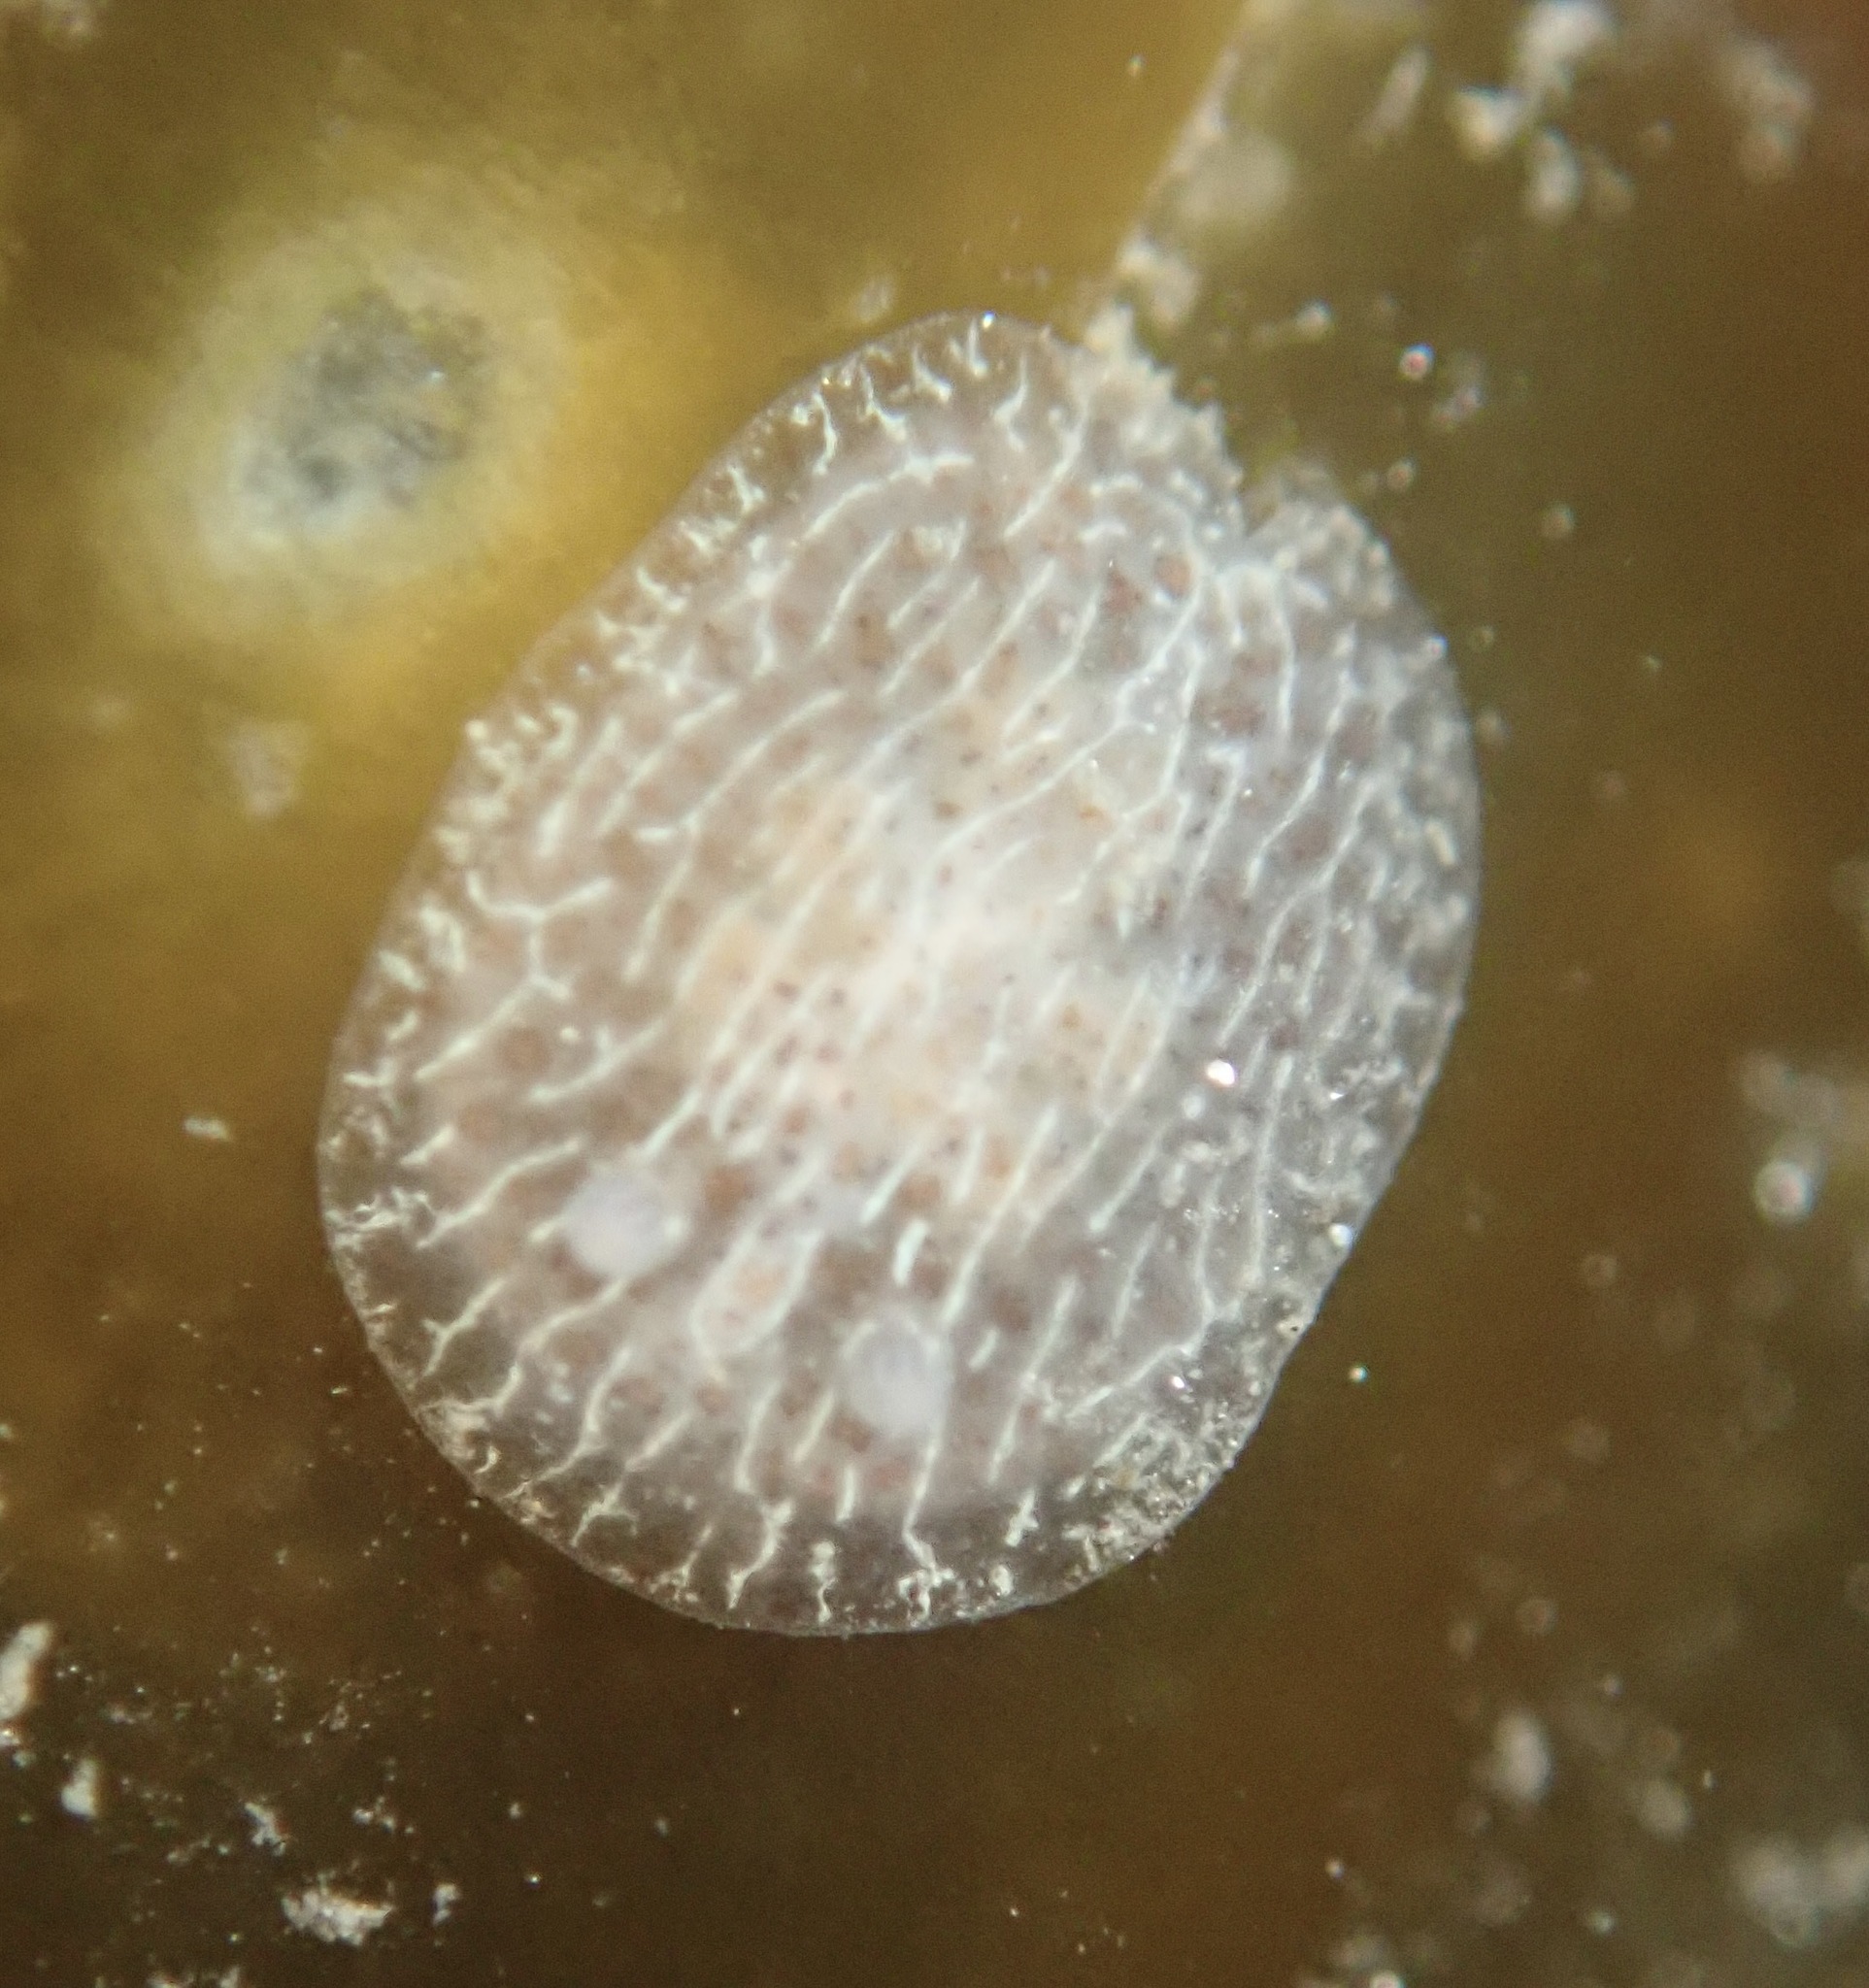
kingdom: Animalia
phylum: Mollusca
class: Gastropoda
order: Nudibranchia
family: Corambidae
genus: Corambe
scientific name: Corambe pacifica
